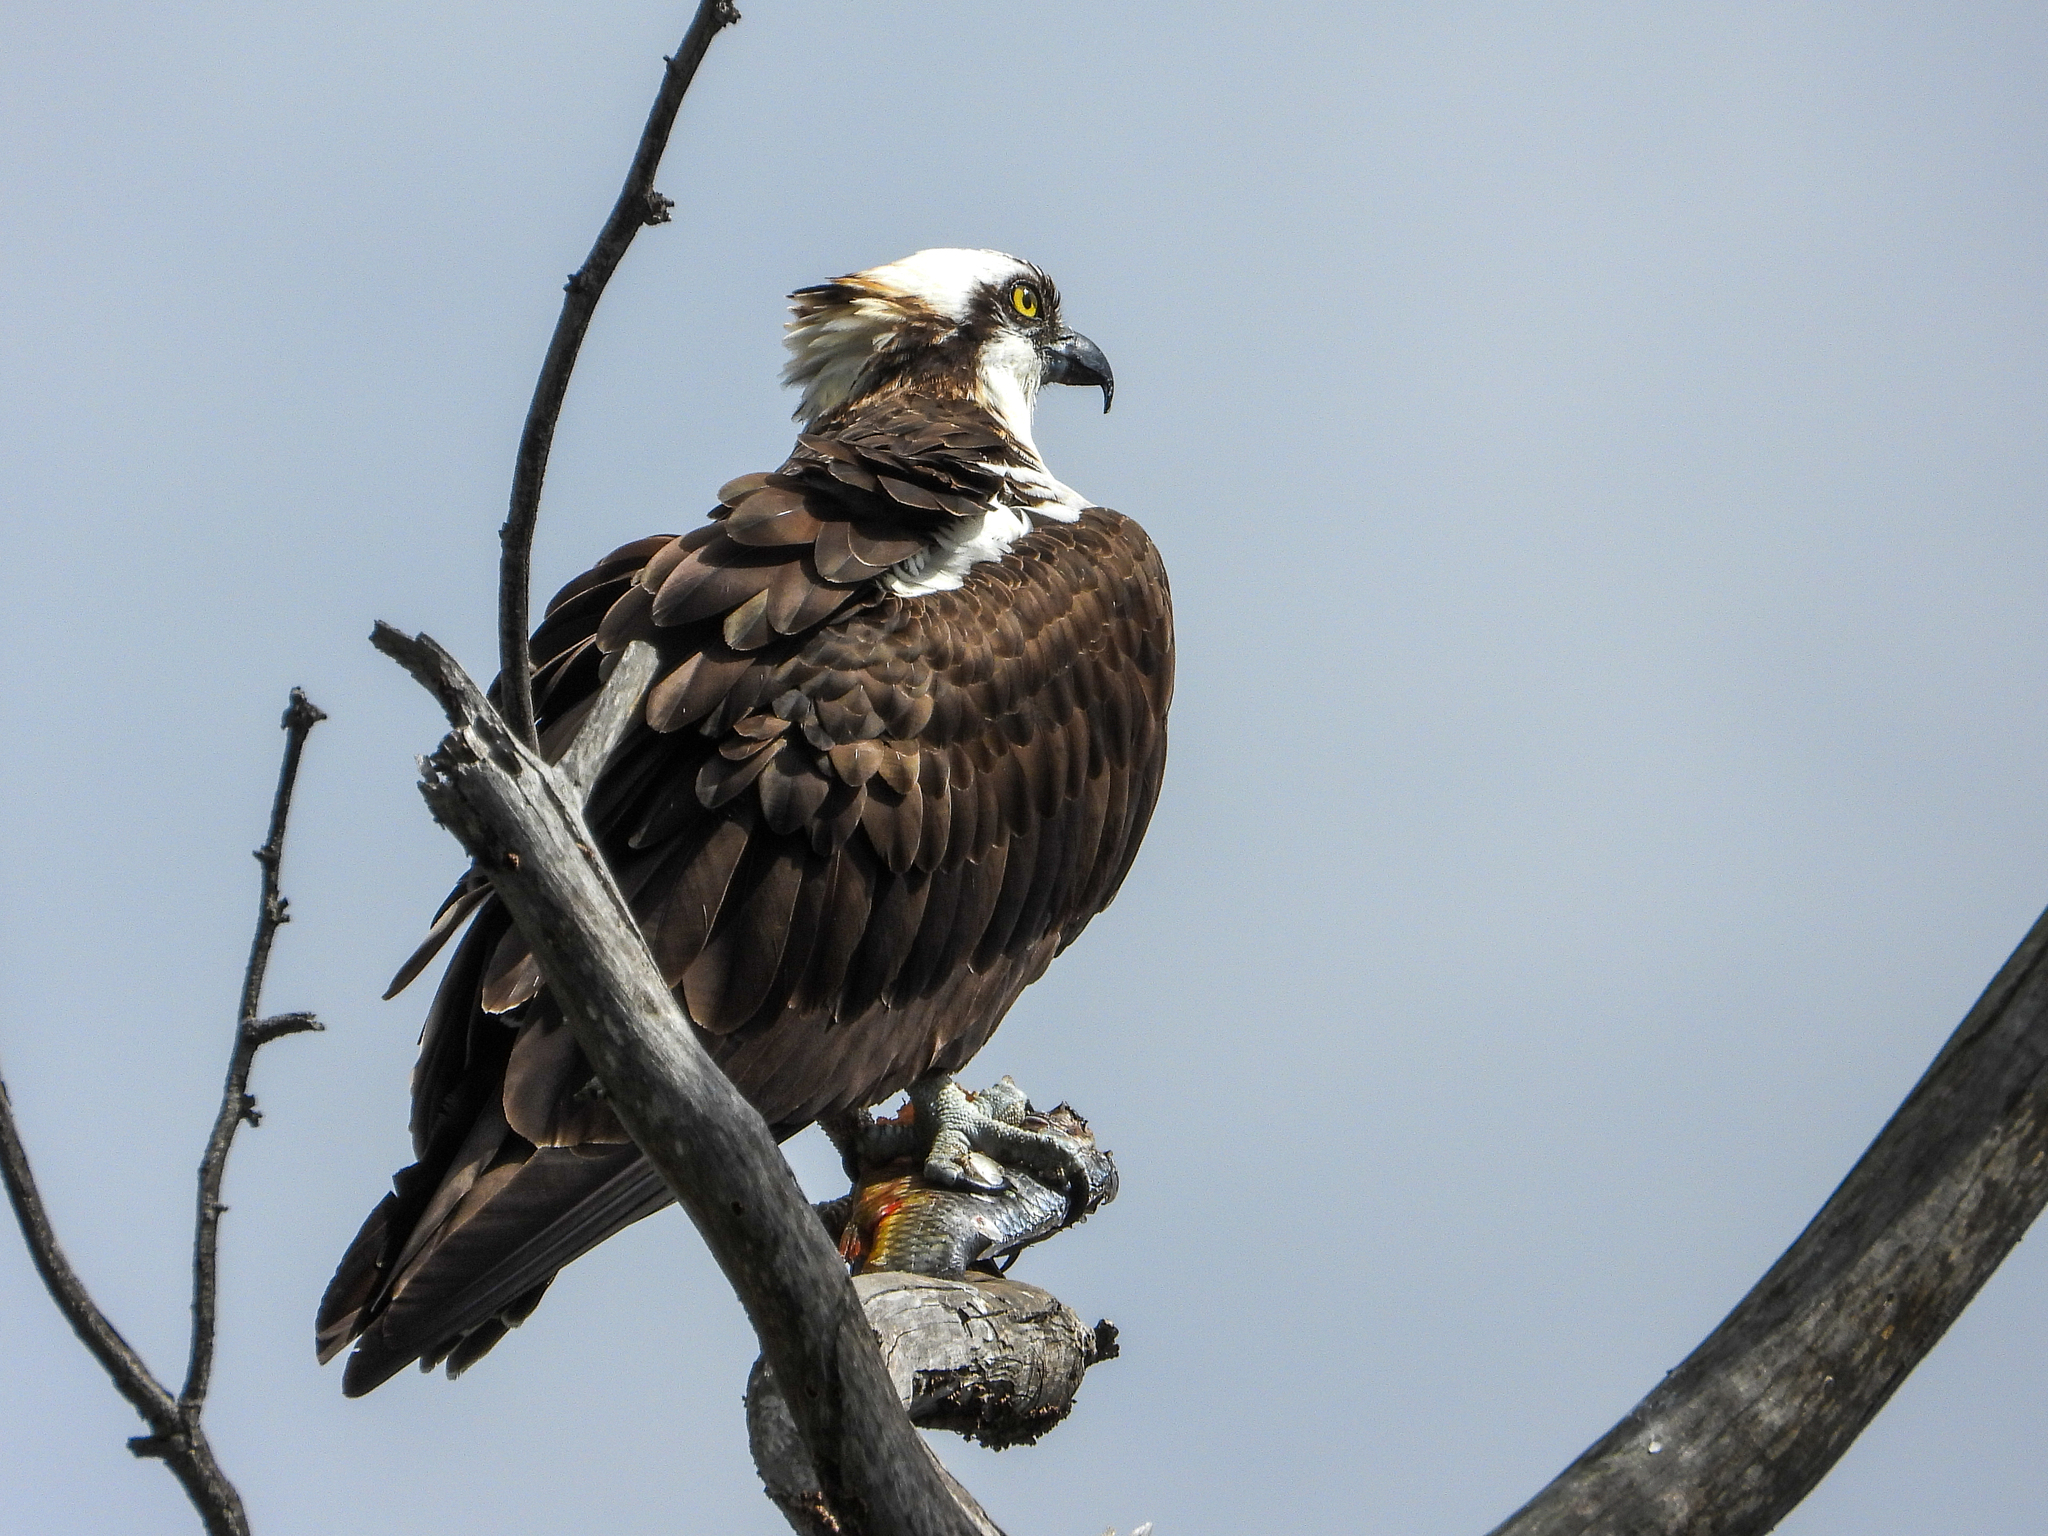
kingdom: Animalia
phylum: Chordata
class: Aves
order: Accipitriformes
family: Pandionidae
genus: Pandion
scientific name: Pandion haliaetus
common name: Osprey
